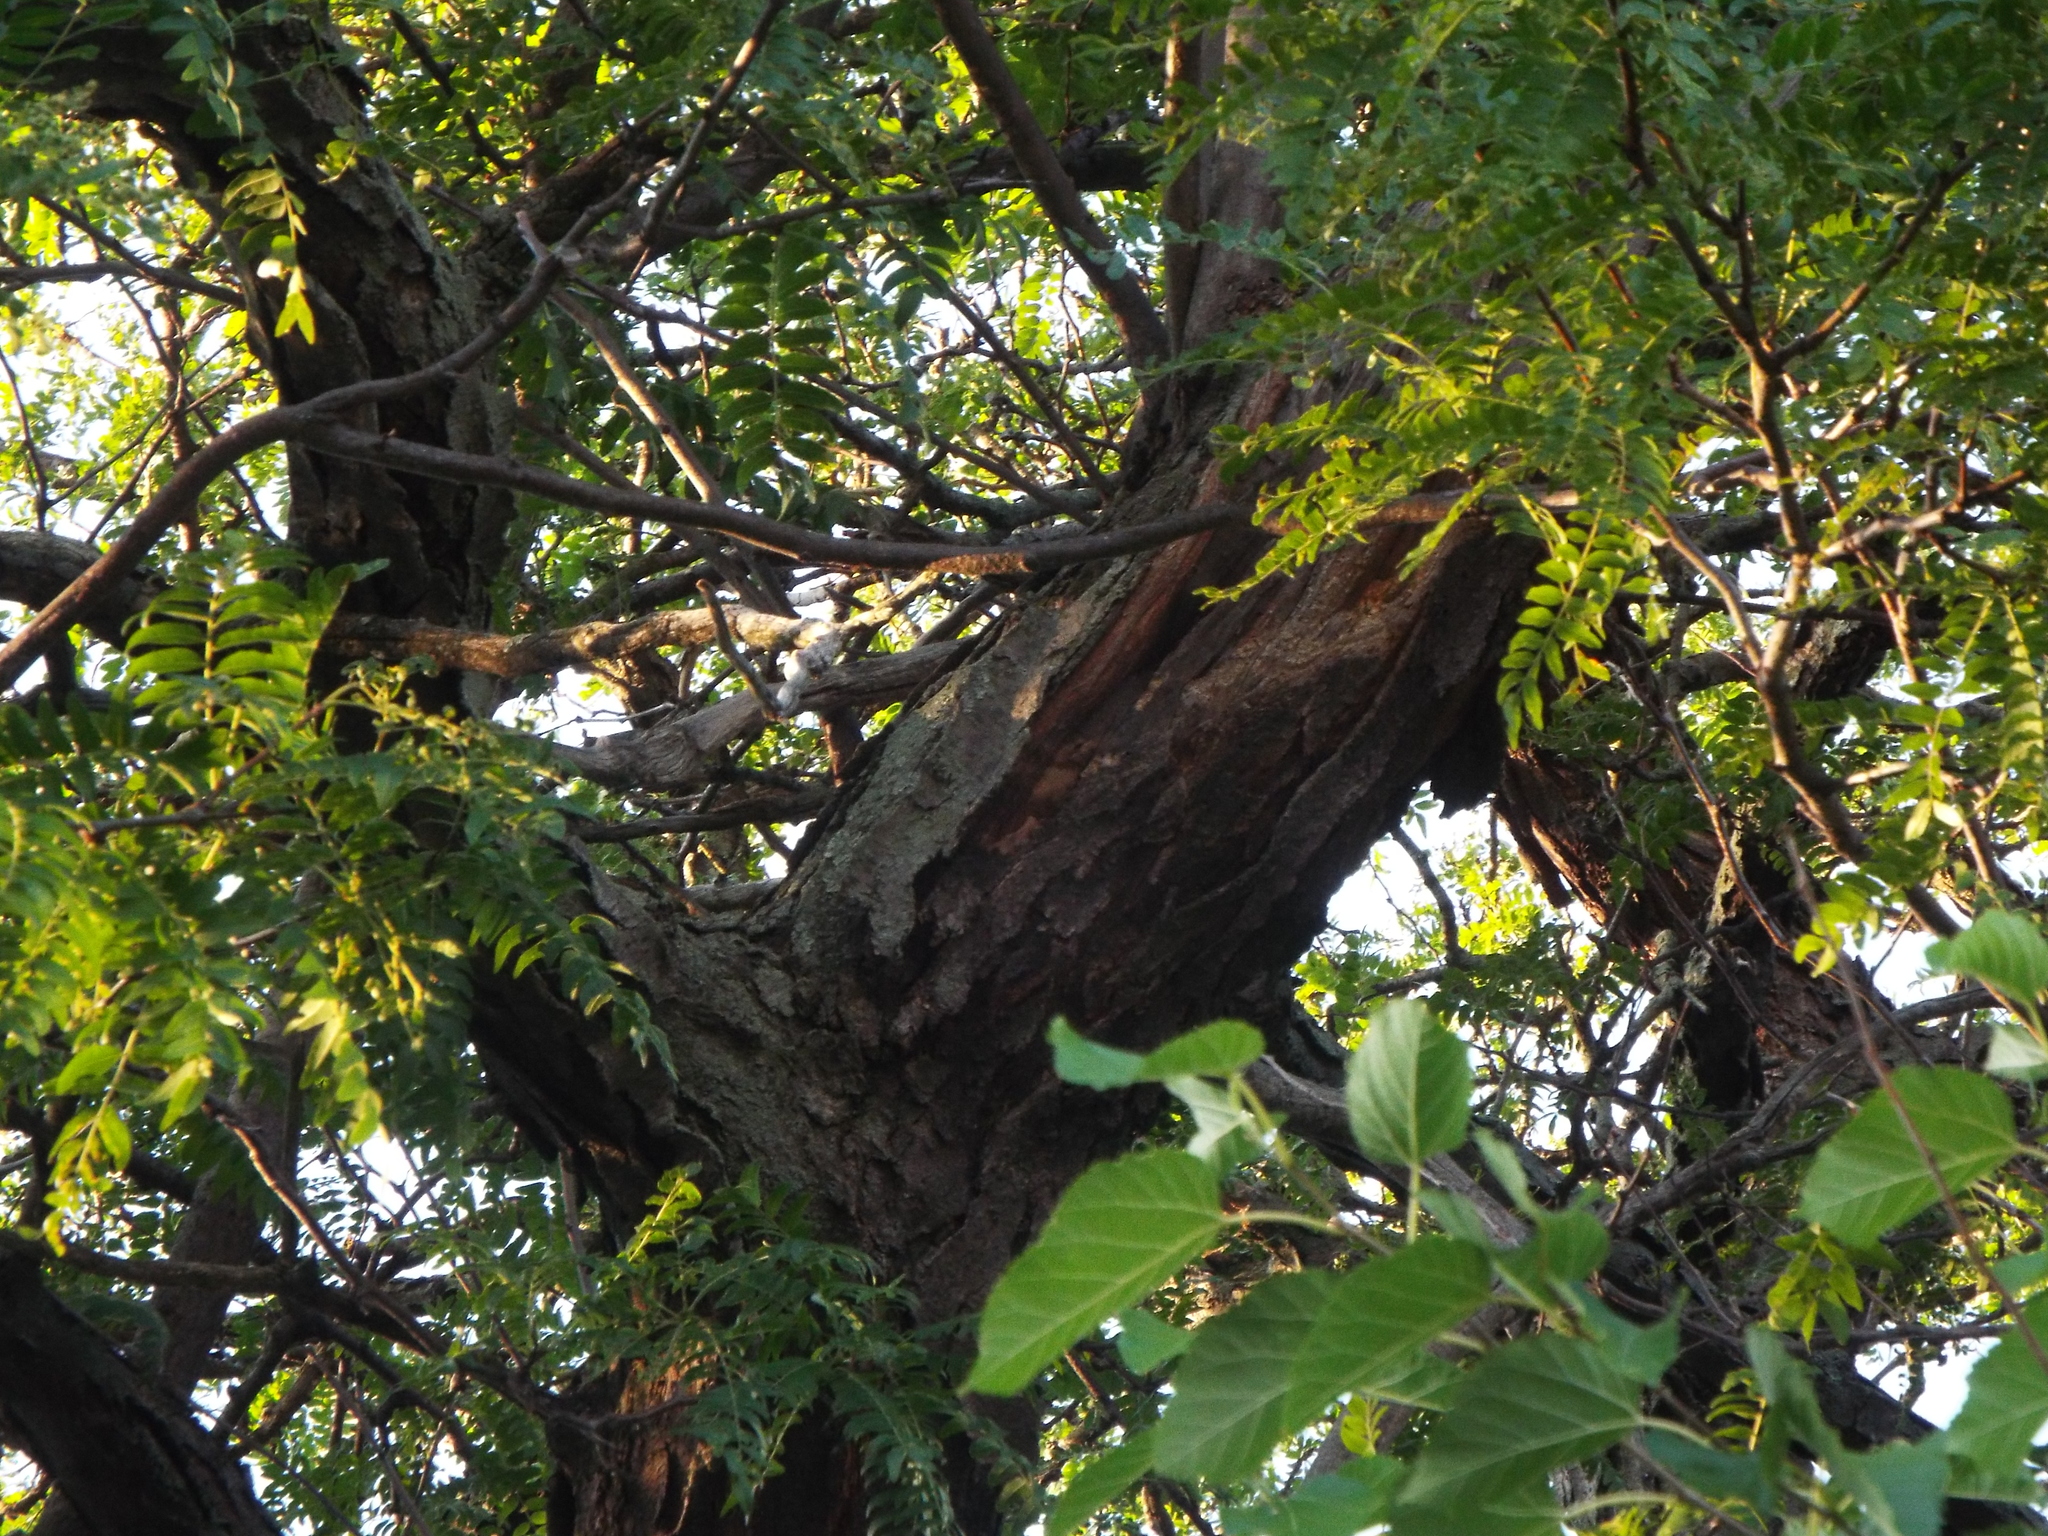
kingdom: Plantae
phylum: Tracheophyta
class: Magnoliopsida
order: Fabales
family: Fabaceae
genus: Gleditsia
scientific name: Gleditsia triacanthos
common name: Common honeylocust
